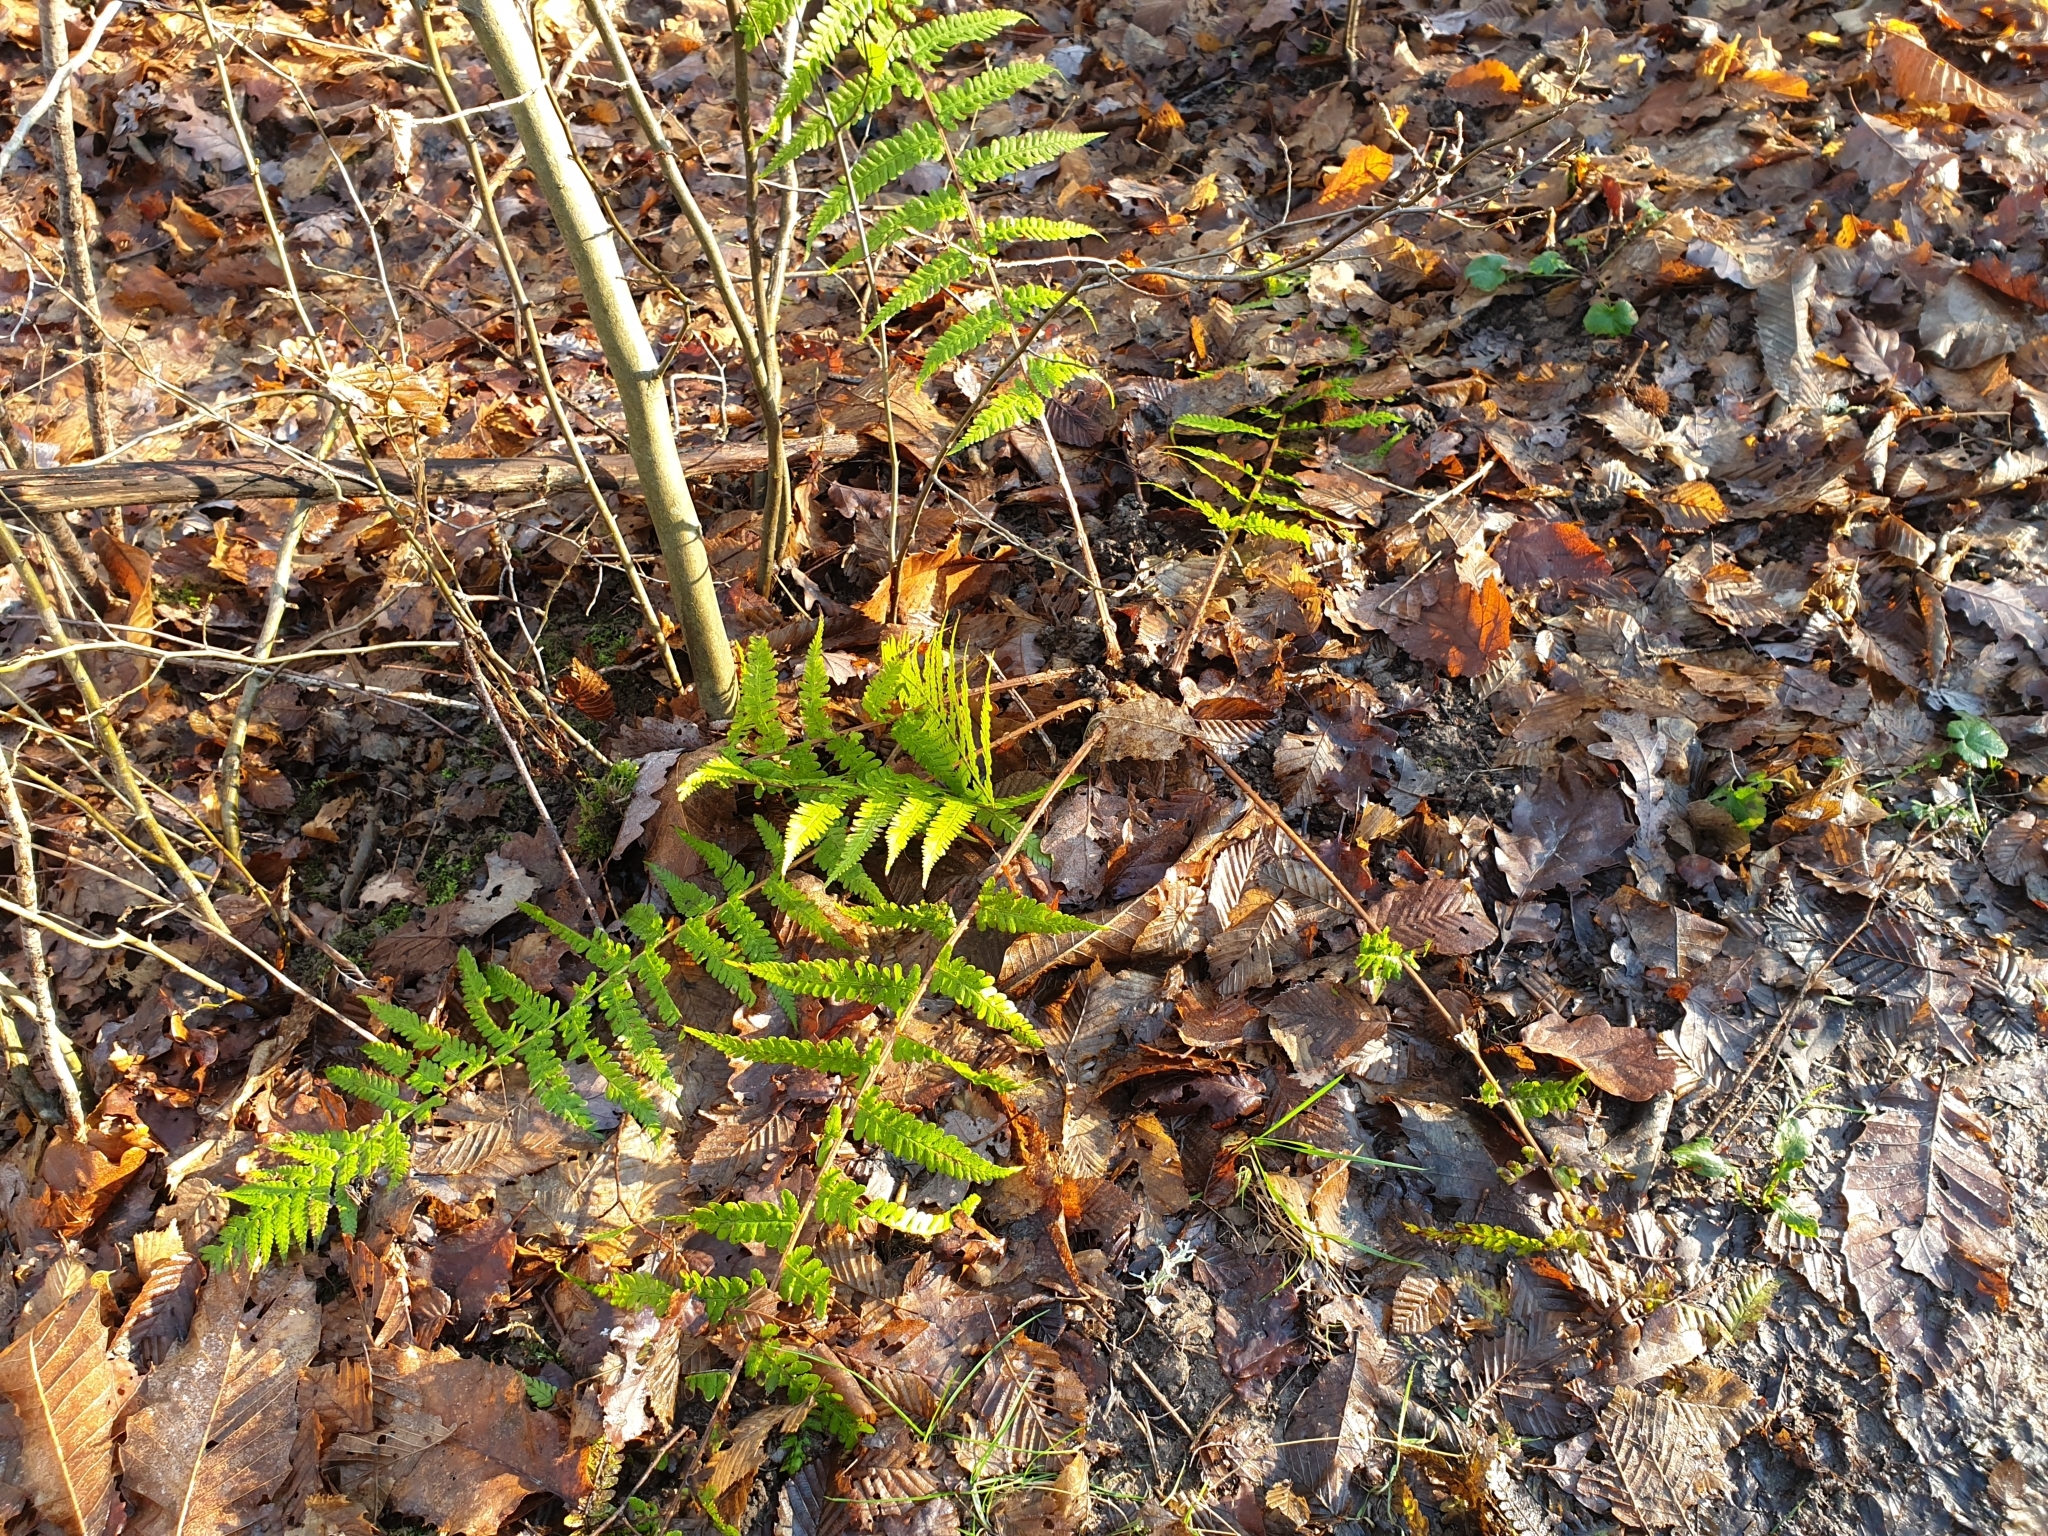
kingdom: Plantae
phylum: Tracheophyta
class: Polypodiopsida
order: Polypodiales
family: Dryopteridaceae
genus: Dryopteris
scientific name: Dryopteris filix-mas
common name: Male fern
